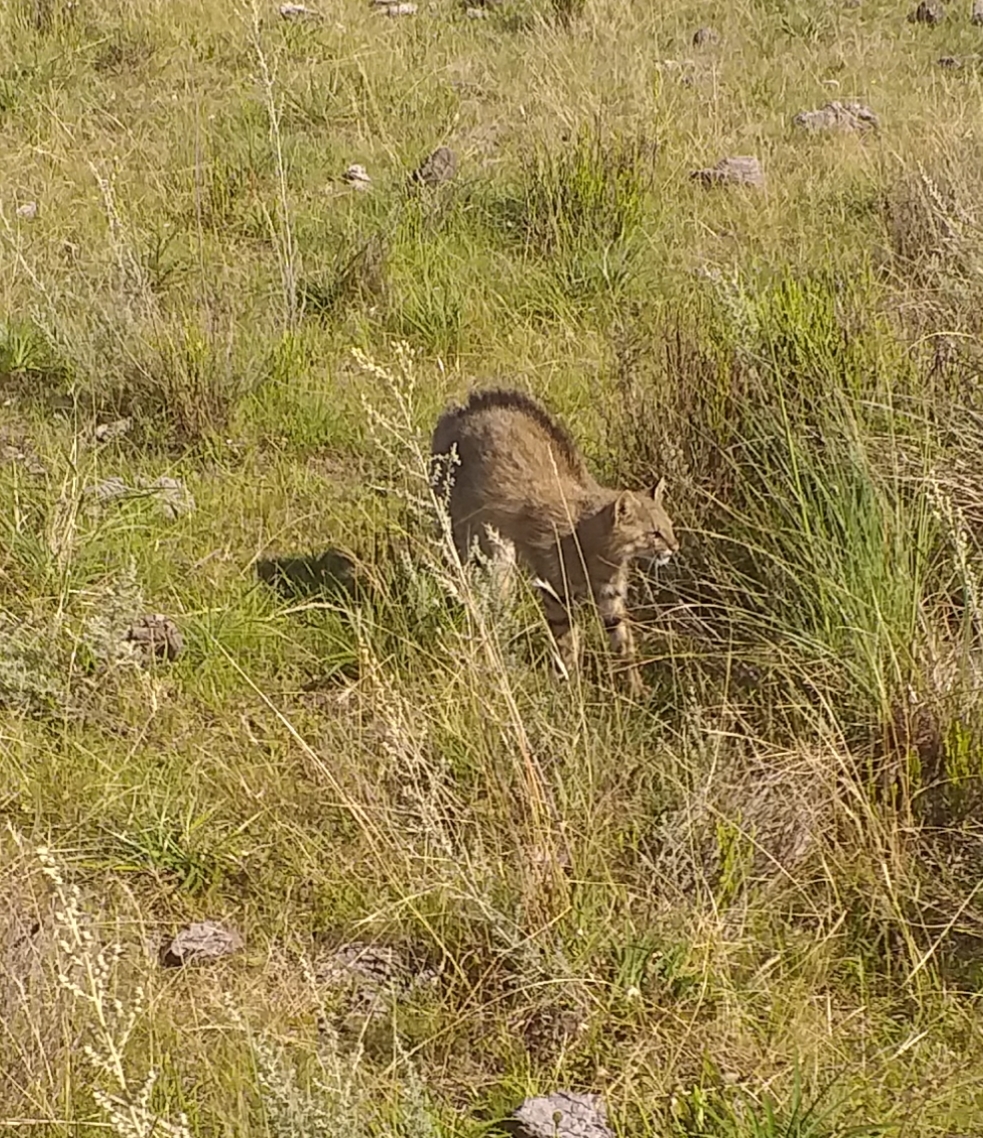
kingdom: Animalia
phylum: Chordata
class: Mammalia
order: Carnivora
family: Felidae
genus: Leopardus
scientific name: Leopardus
